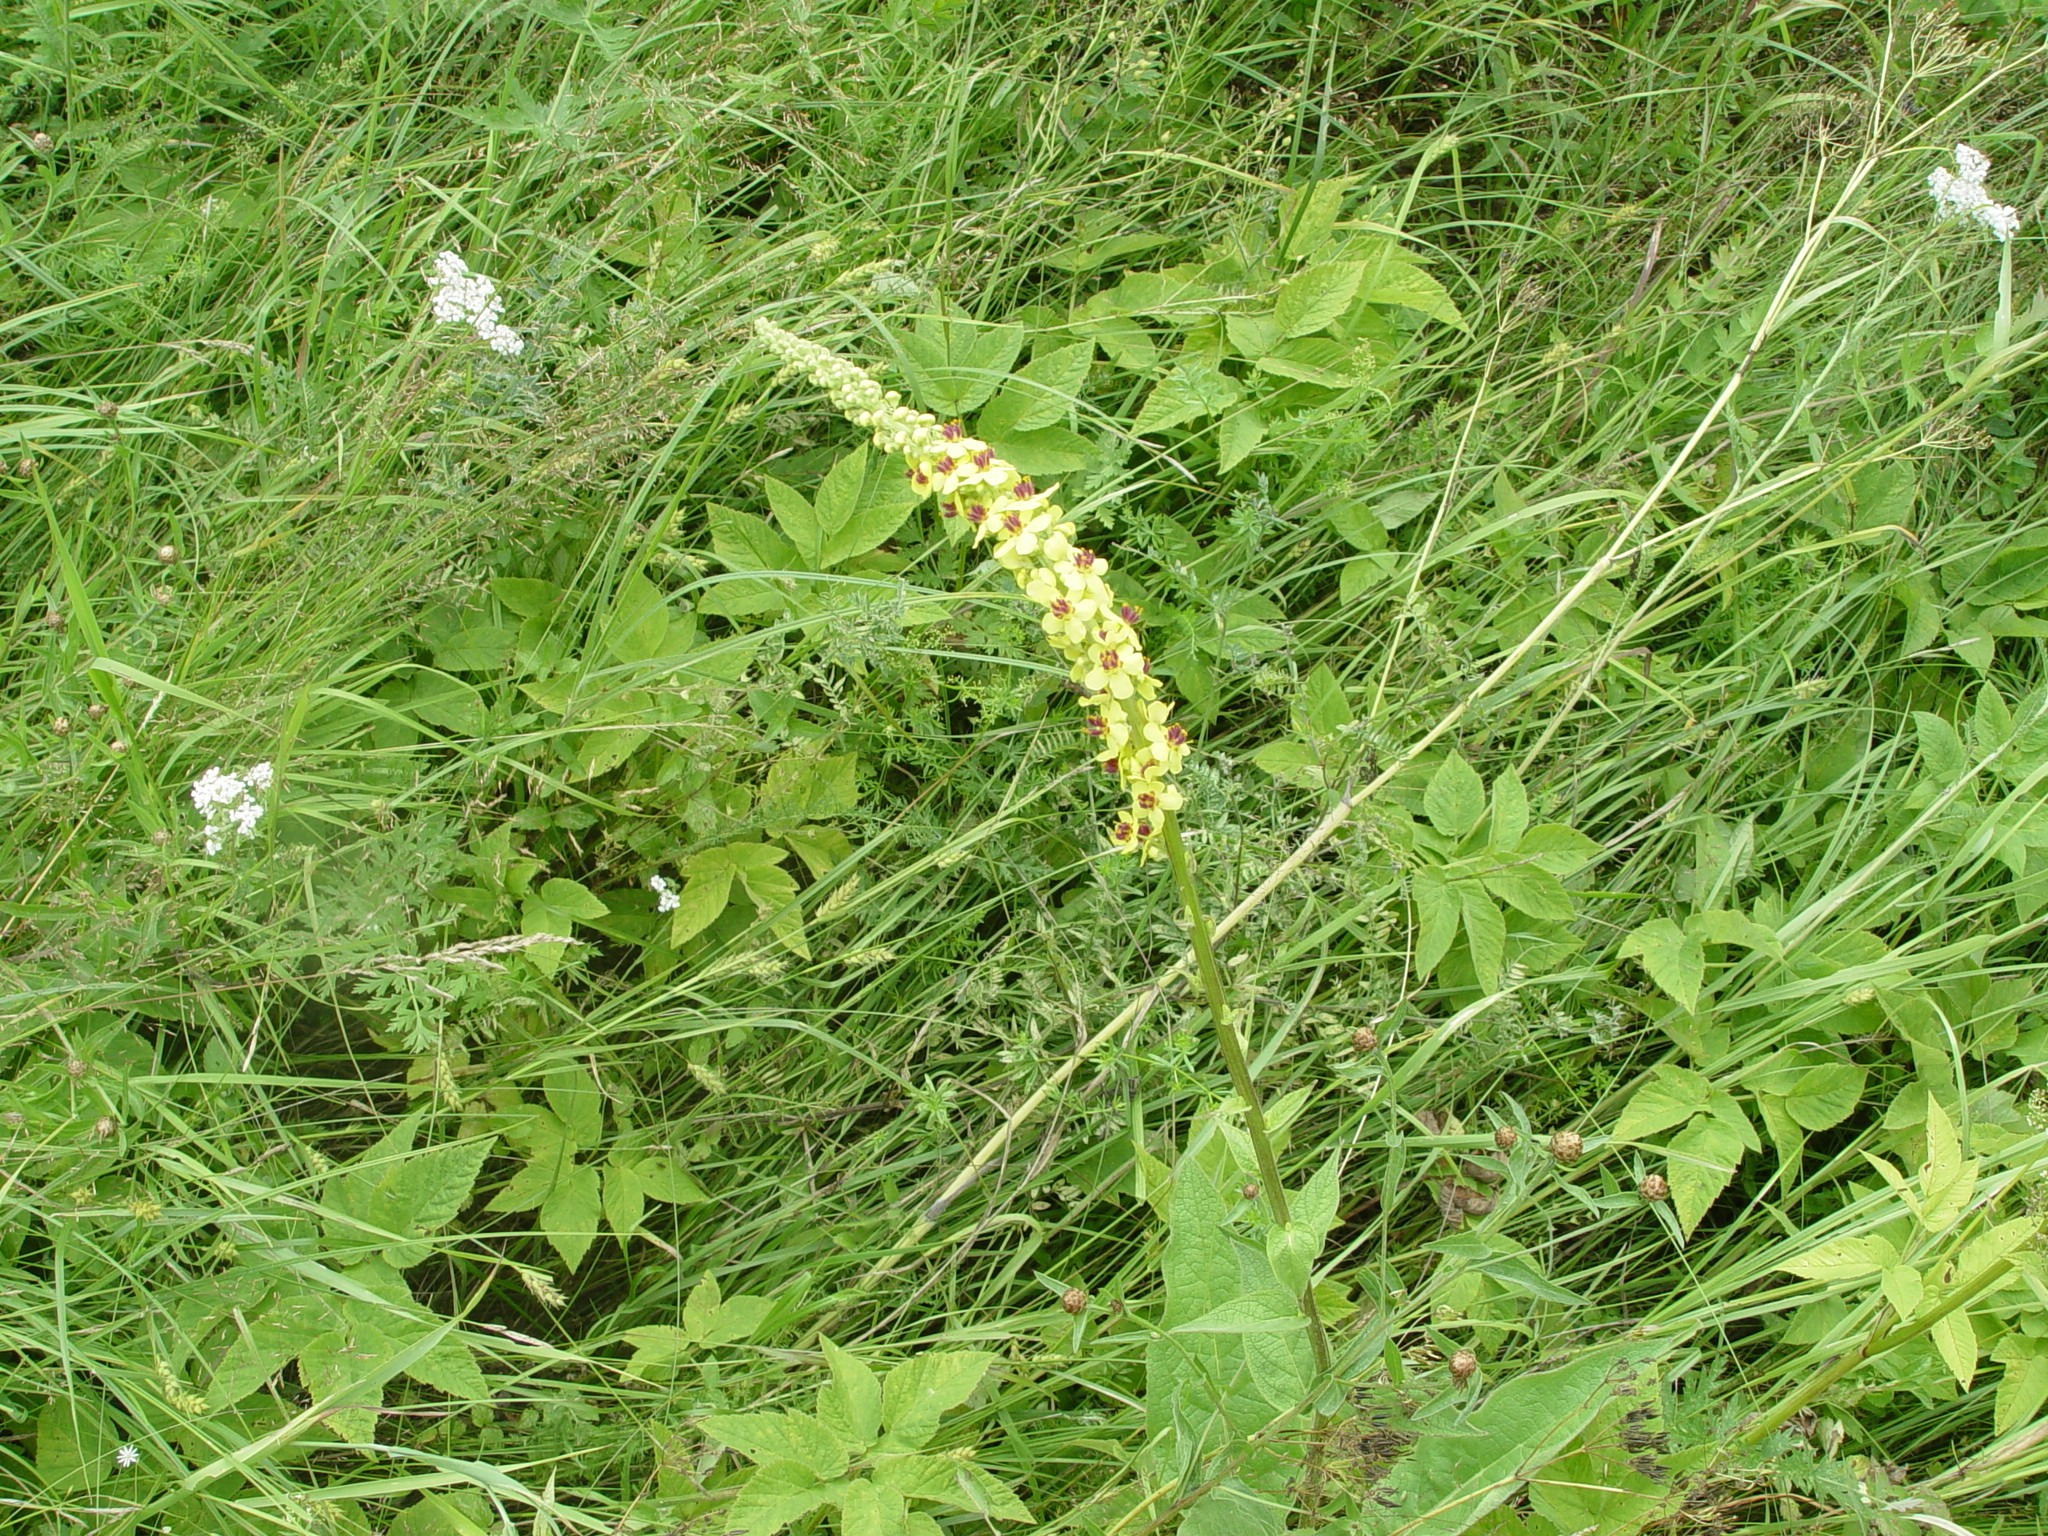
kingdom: Plantae
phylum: Tracheophyta
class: Magnoliopsida
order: Lamiales
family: Scrophulariaceae
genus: Verbascum
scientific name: Verbascum nigrum
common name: Dark mullein
